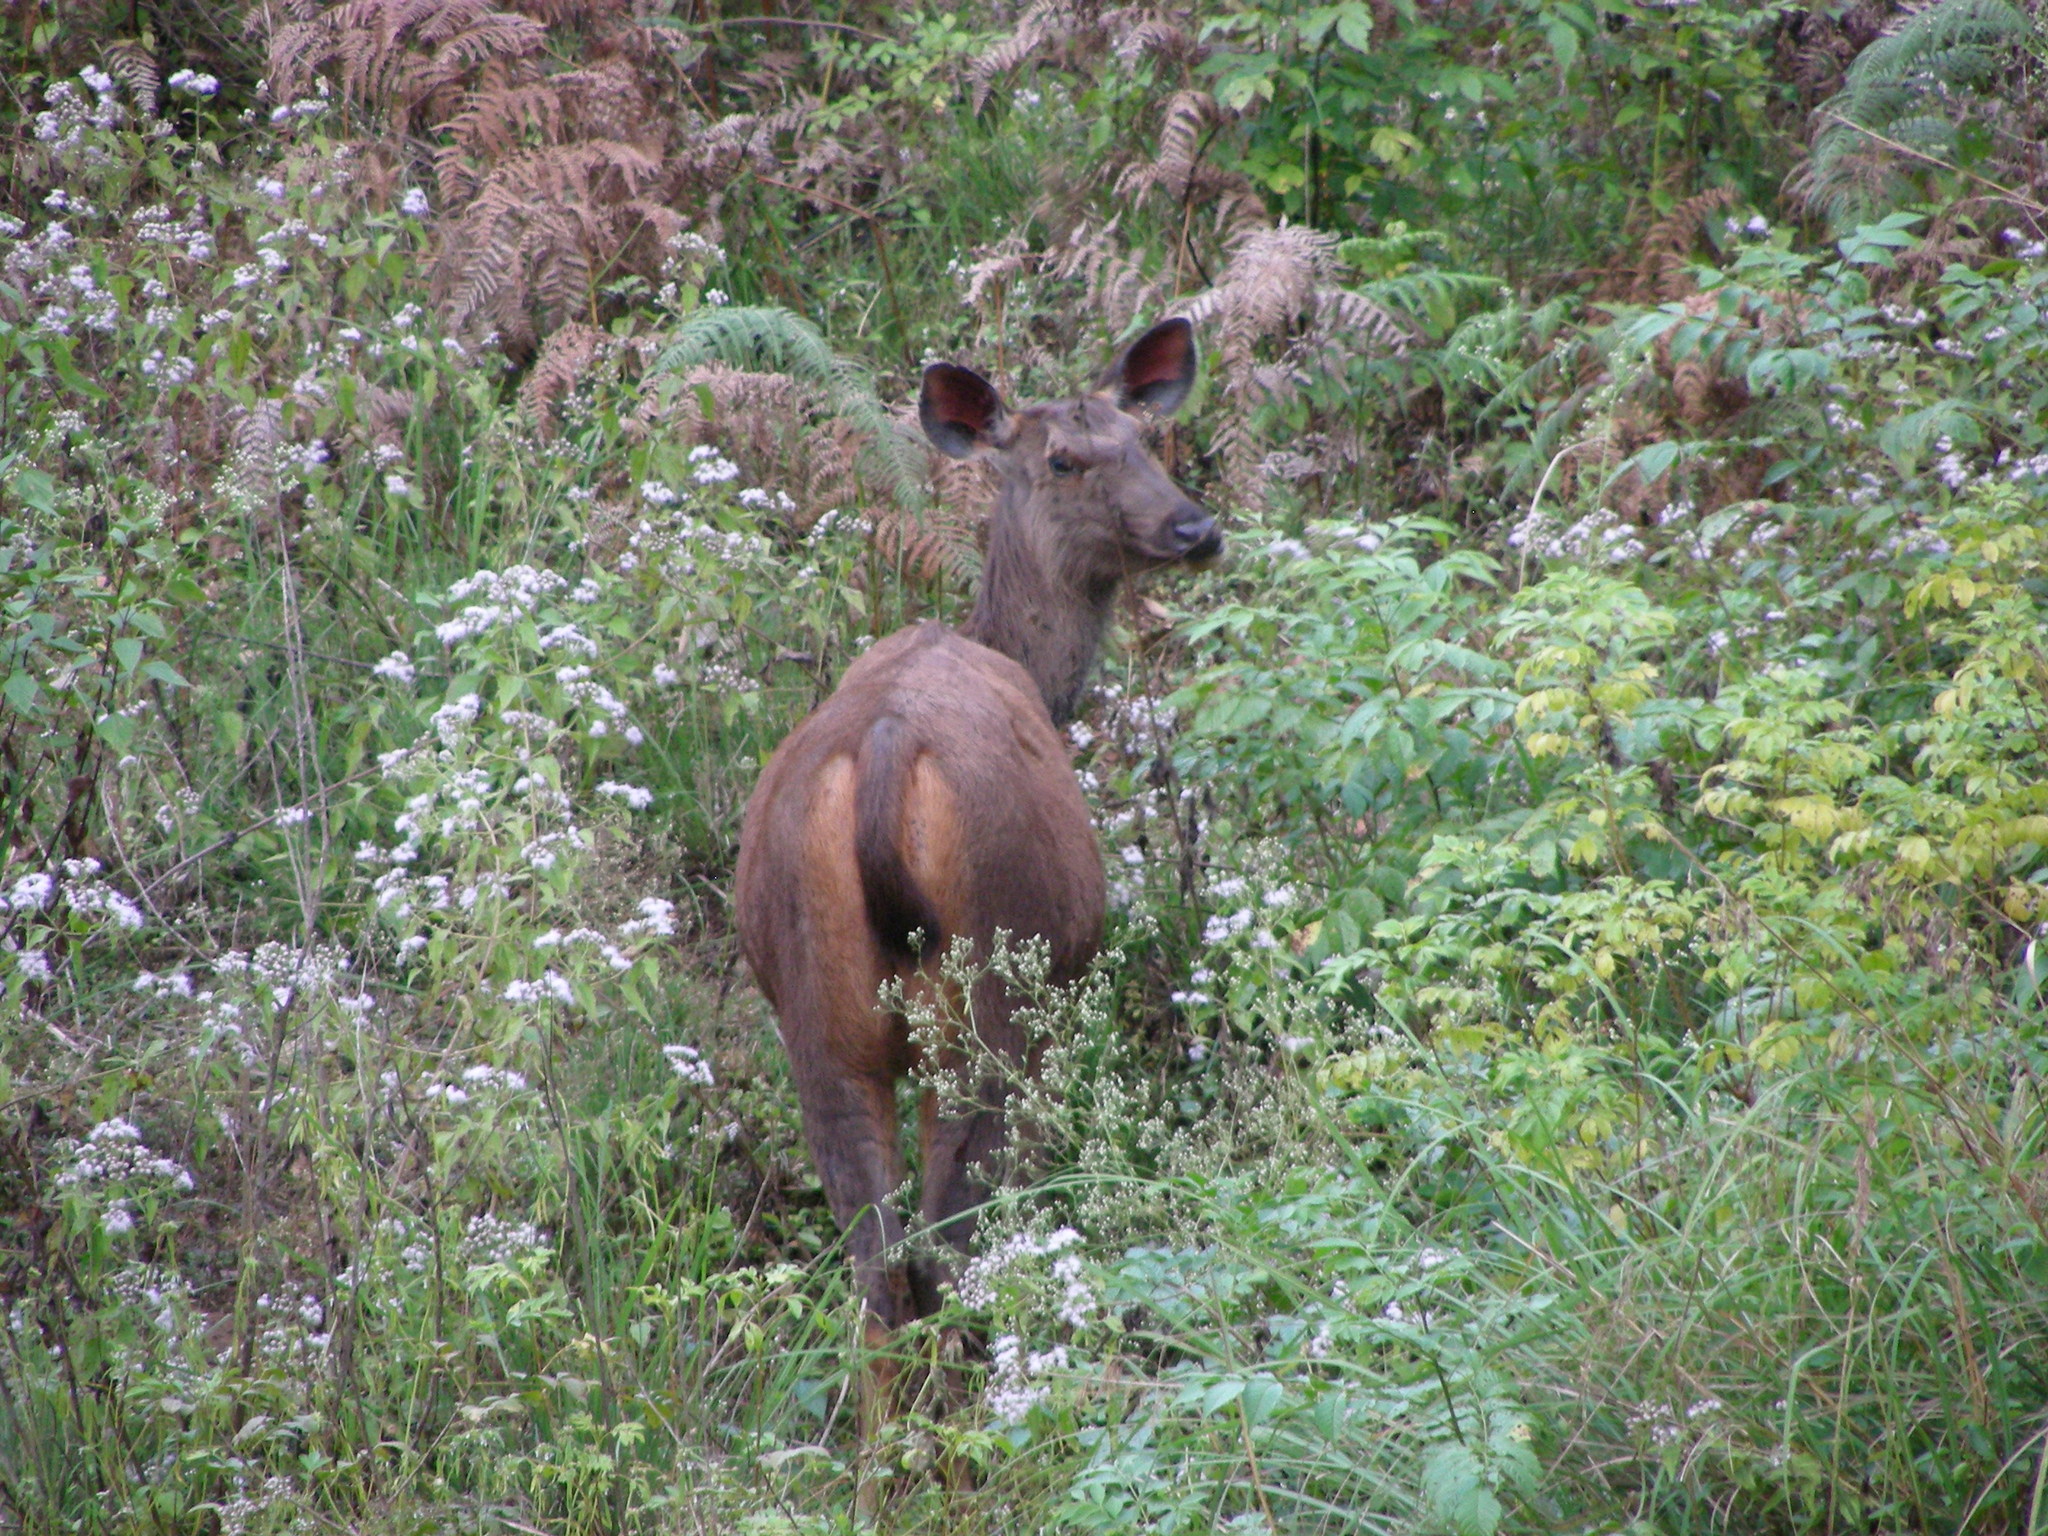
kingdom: Animalia
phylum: Chordata
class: Mammalia
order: Artiodactyla
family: Cervidae
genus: Rusa
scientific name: Rusa unicolor
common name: Sambar
